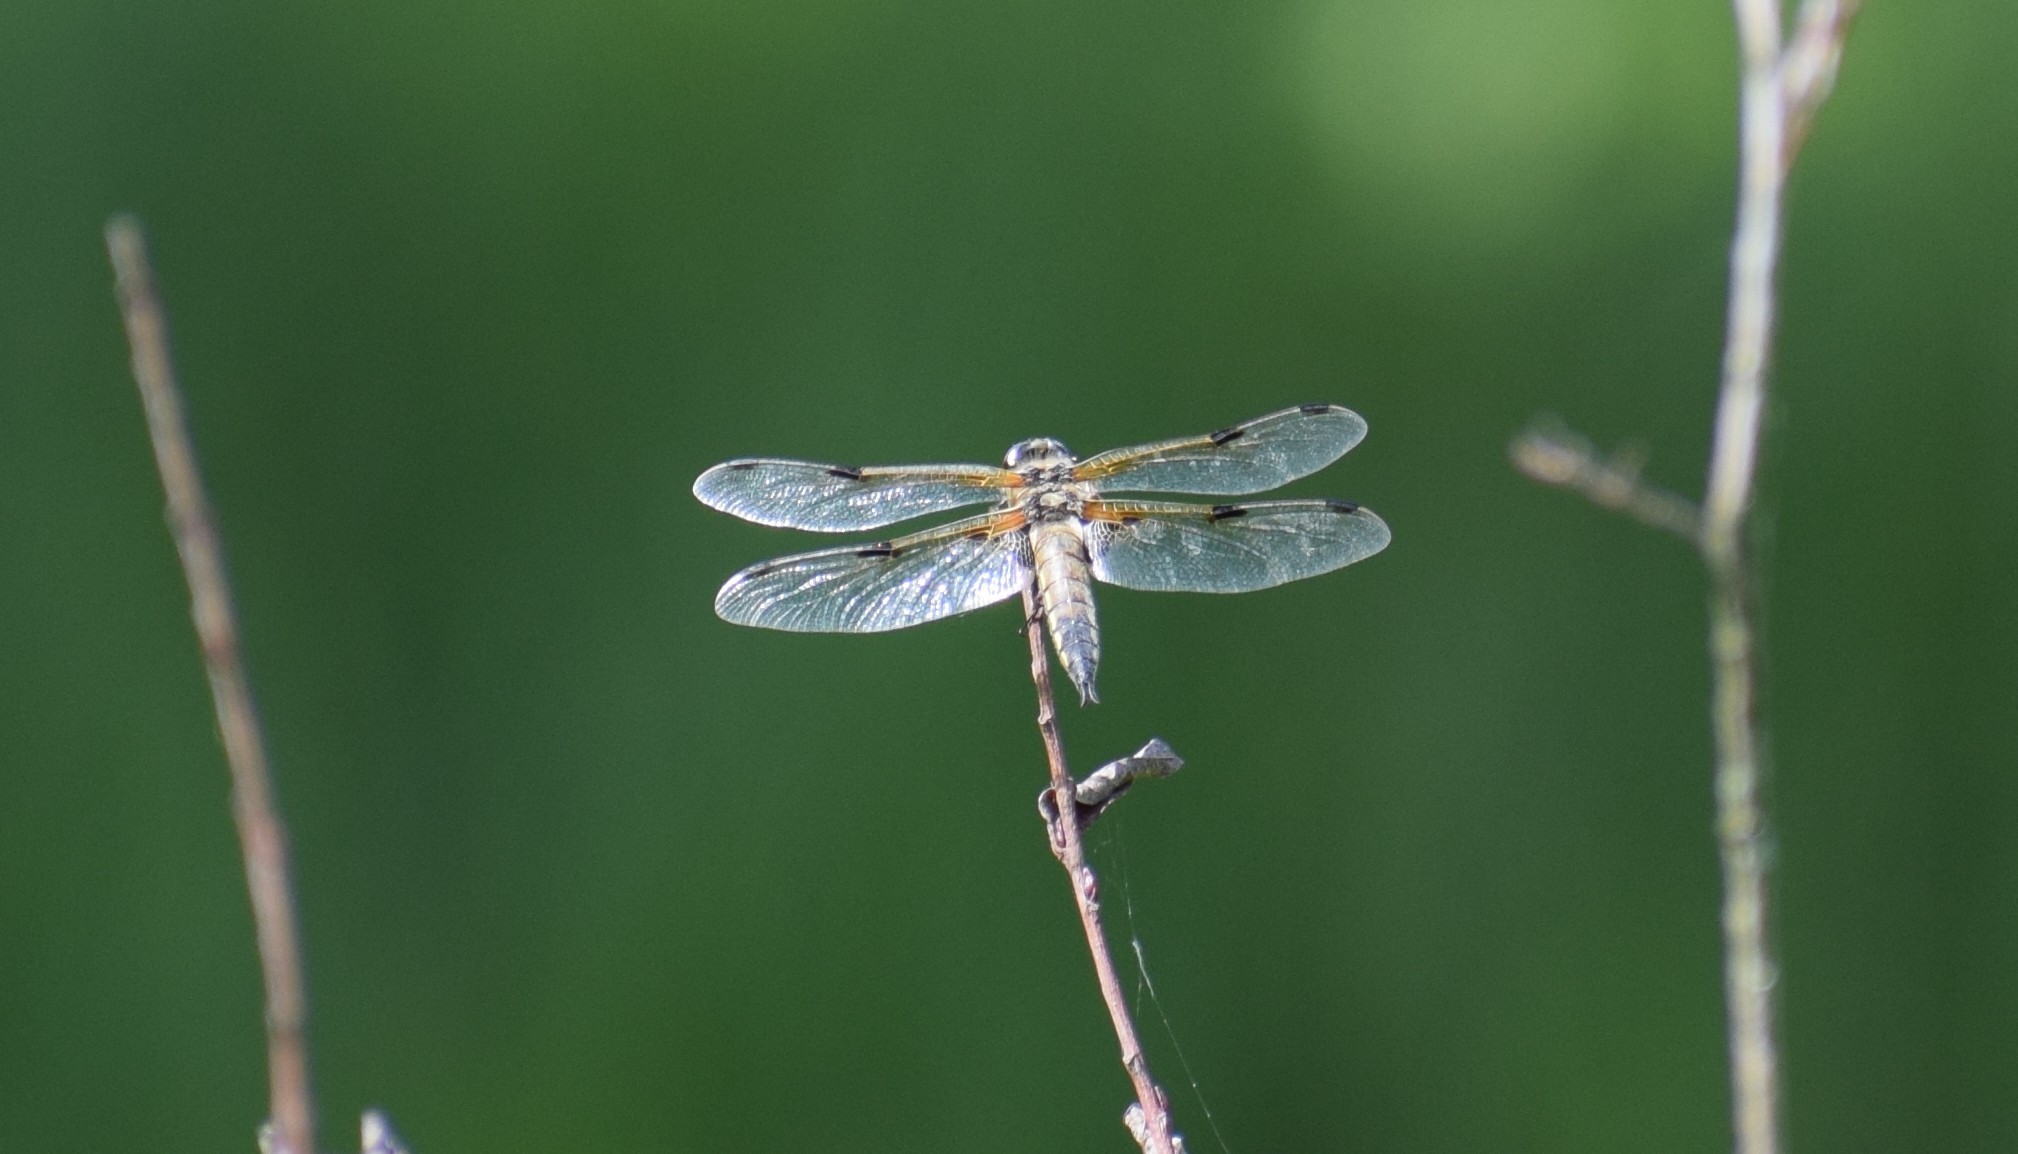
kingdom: Animalia
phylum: Arthropoda
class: Insecta
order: Odonata
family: Libellulidae
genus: Libellula
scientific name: Libellula quadrimaculata
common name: Four-spotted chaser
